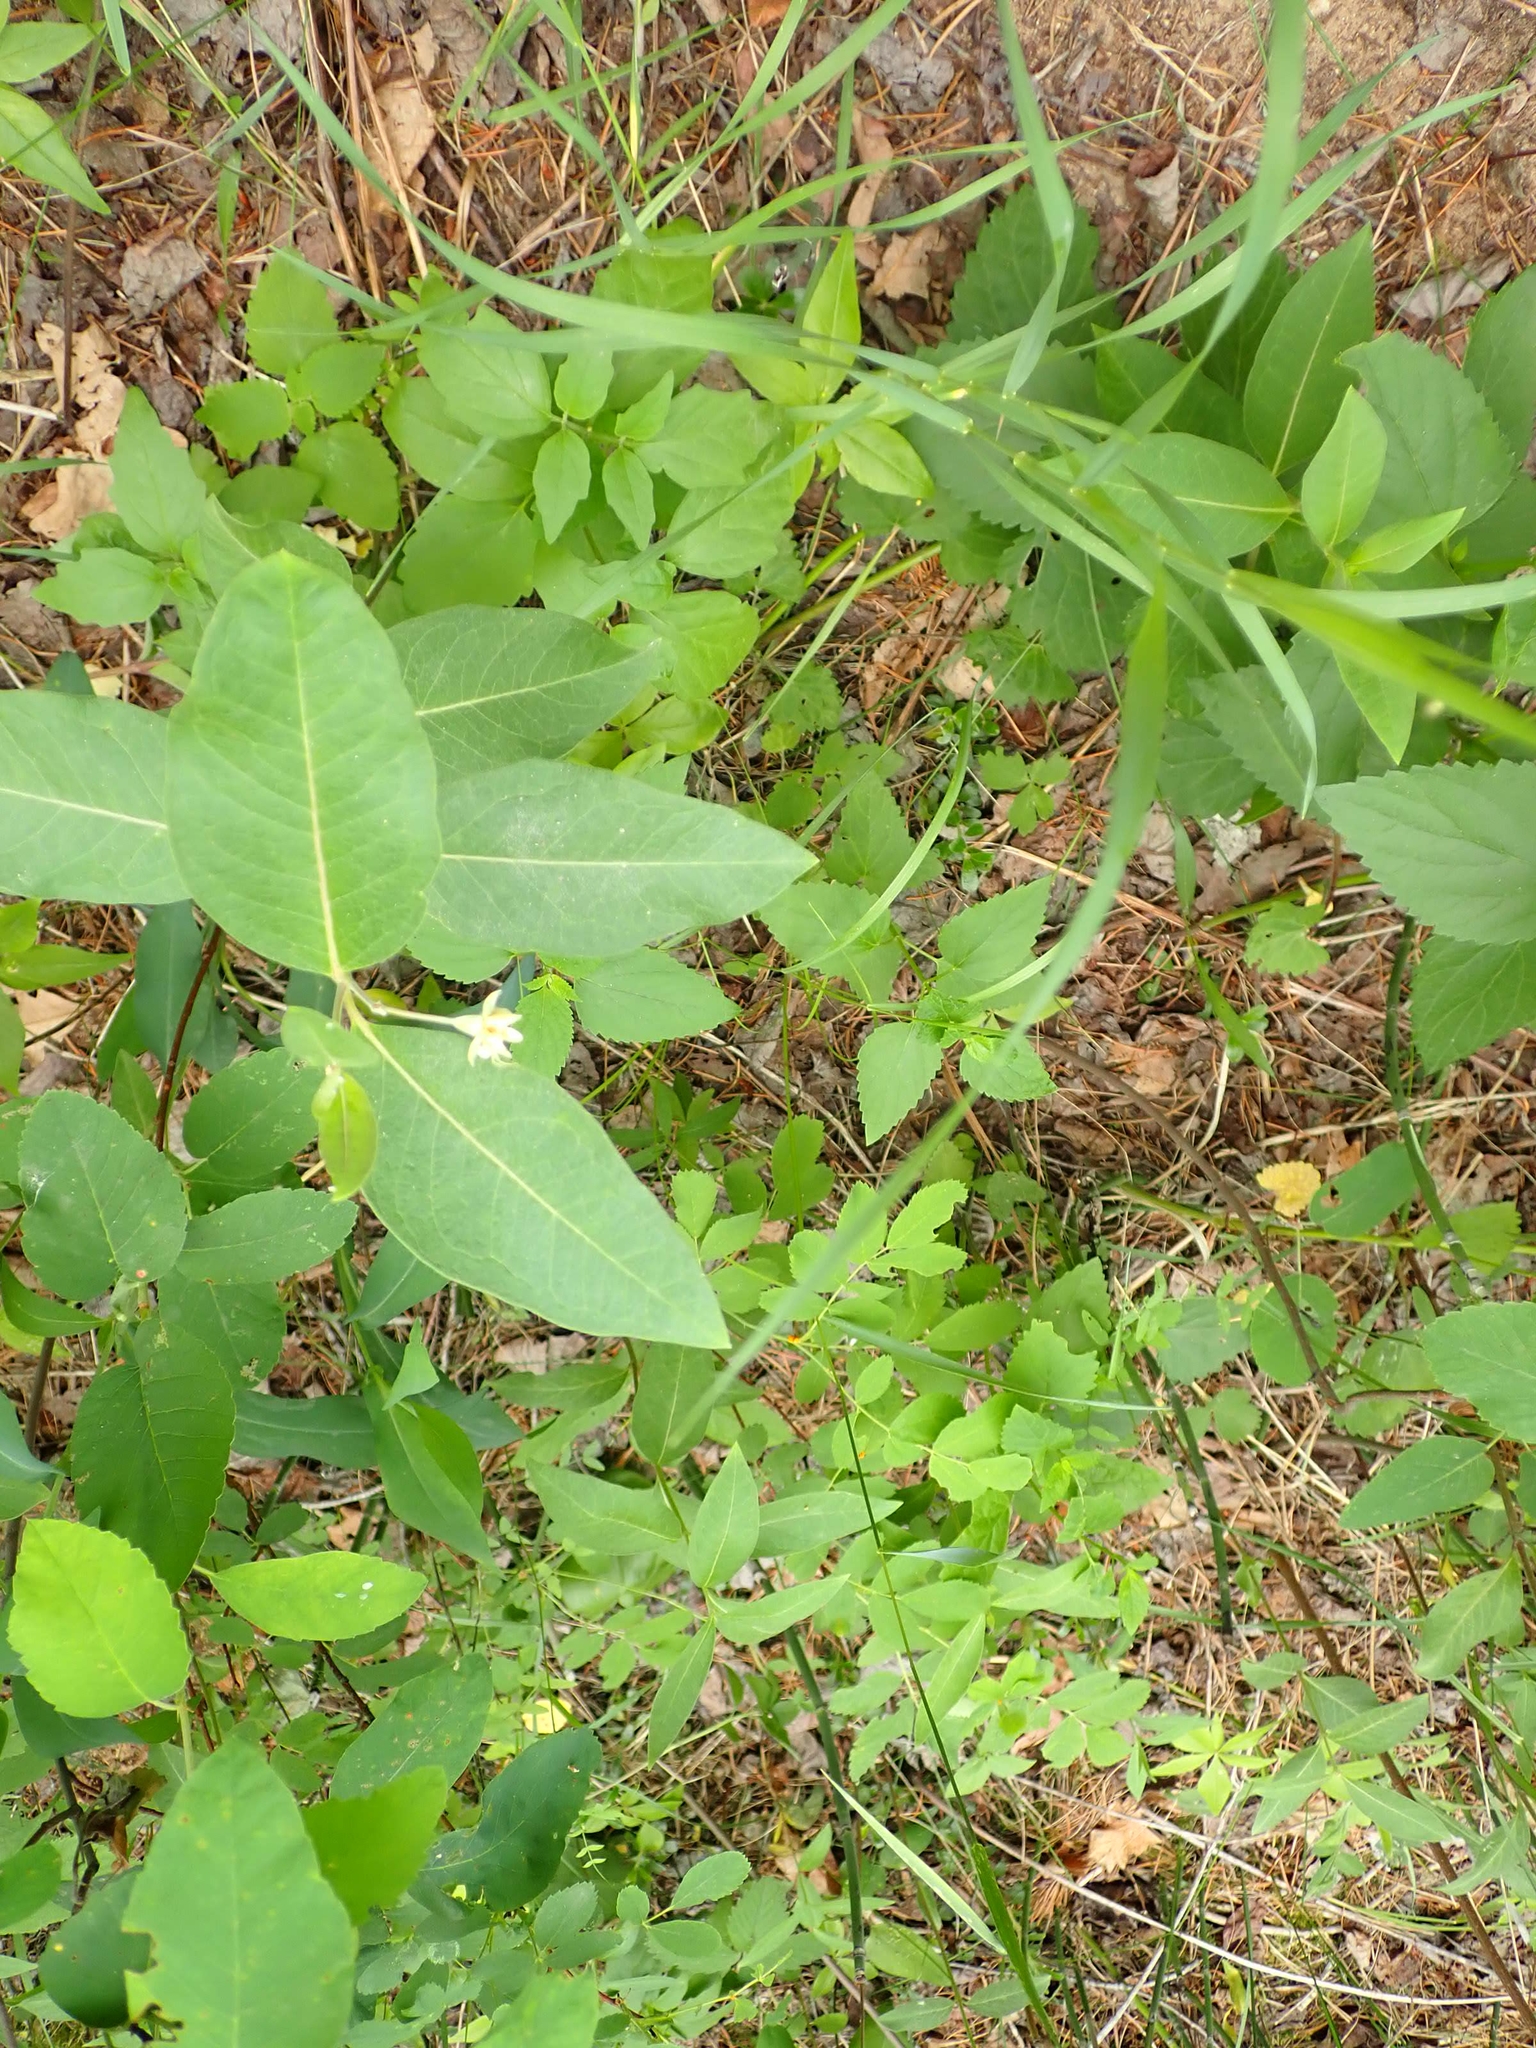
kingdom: Plantae
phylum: Tracheophyta
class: Magnoliopsida
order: Gentianales
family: Apocynaceae
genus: Asclepias
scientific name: Asclepias ovalifolia
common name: Dwarf milkweed
